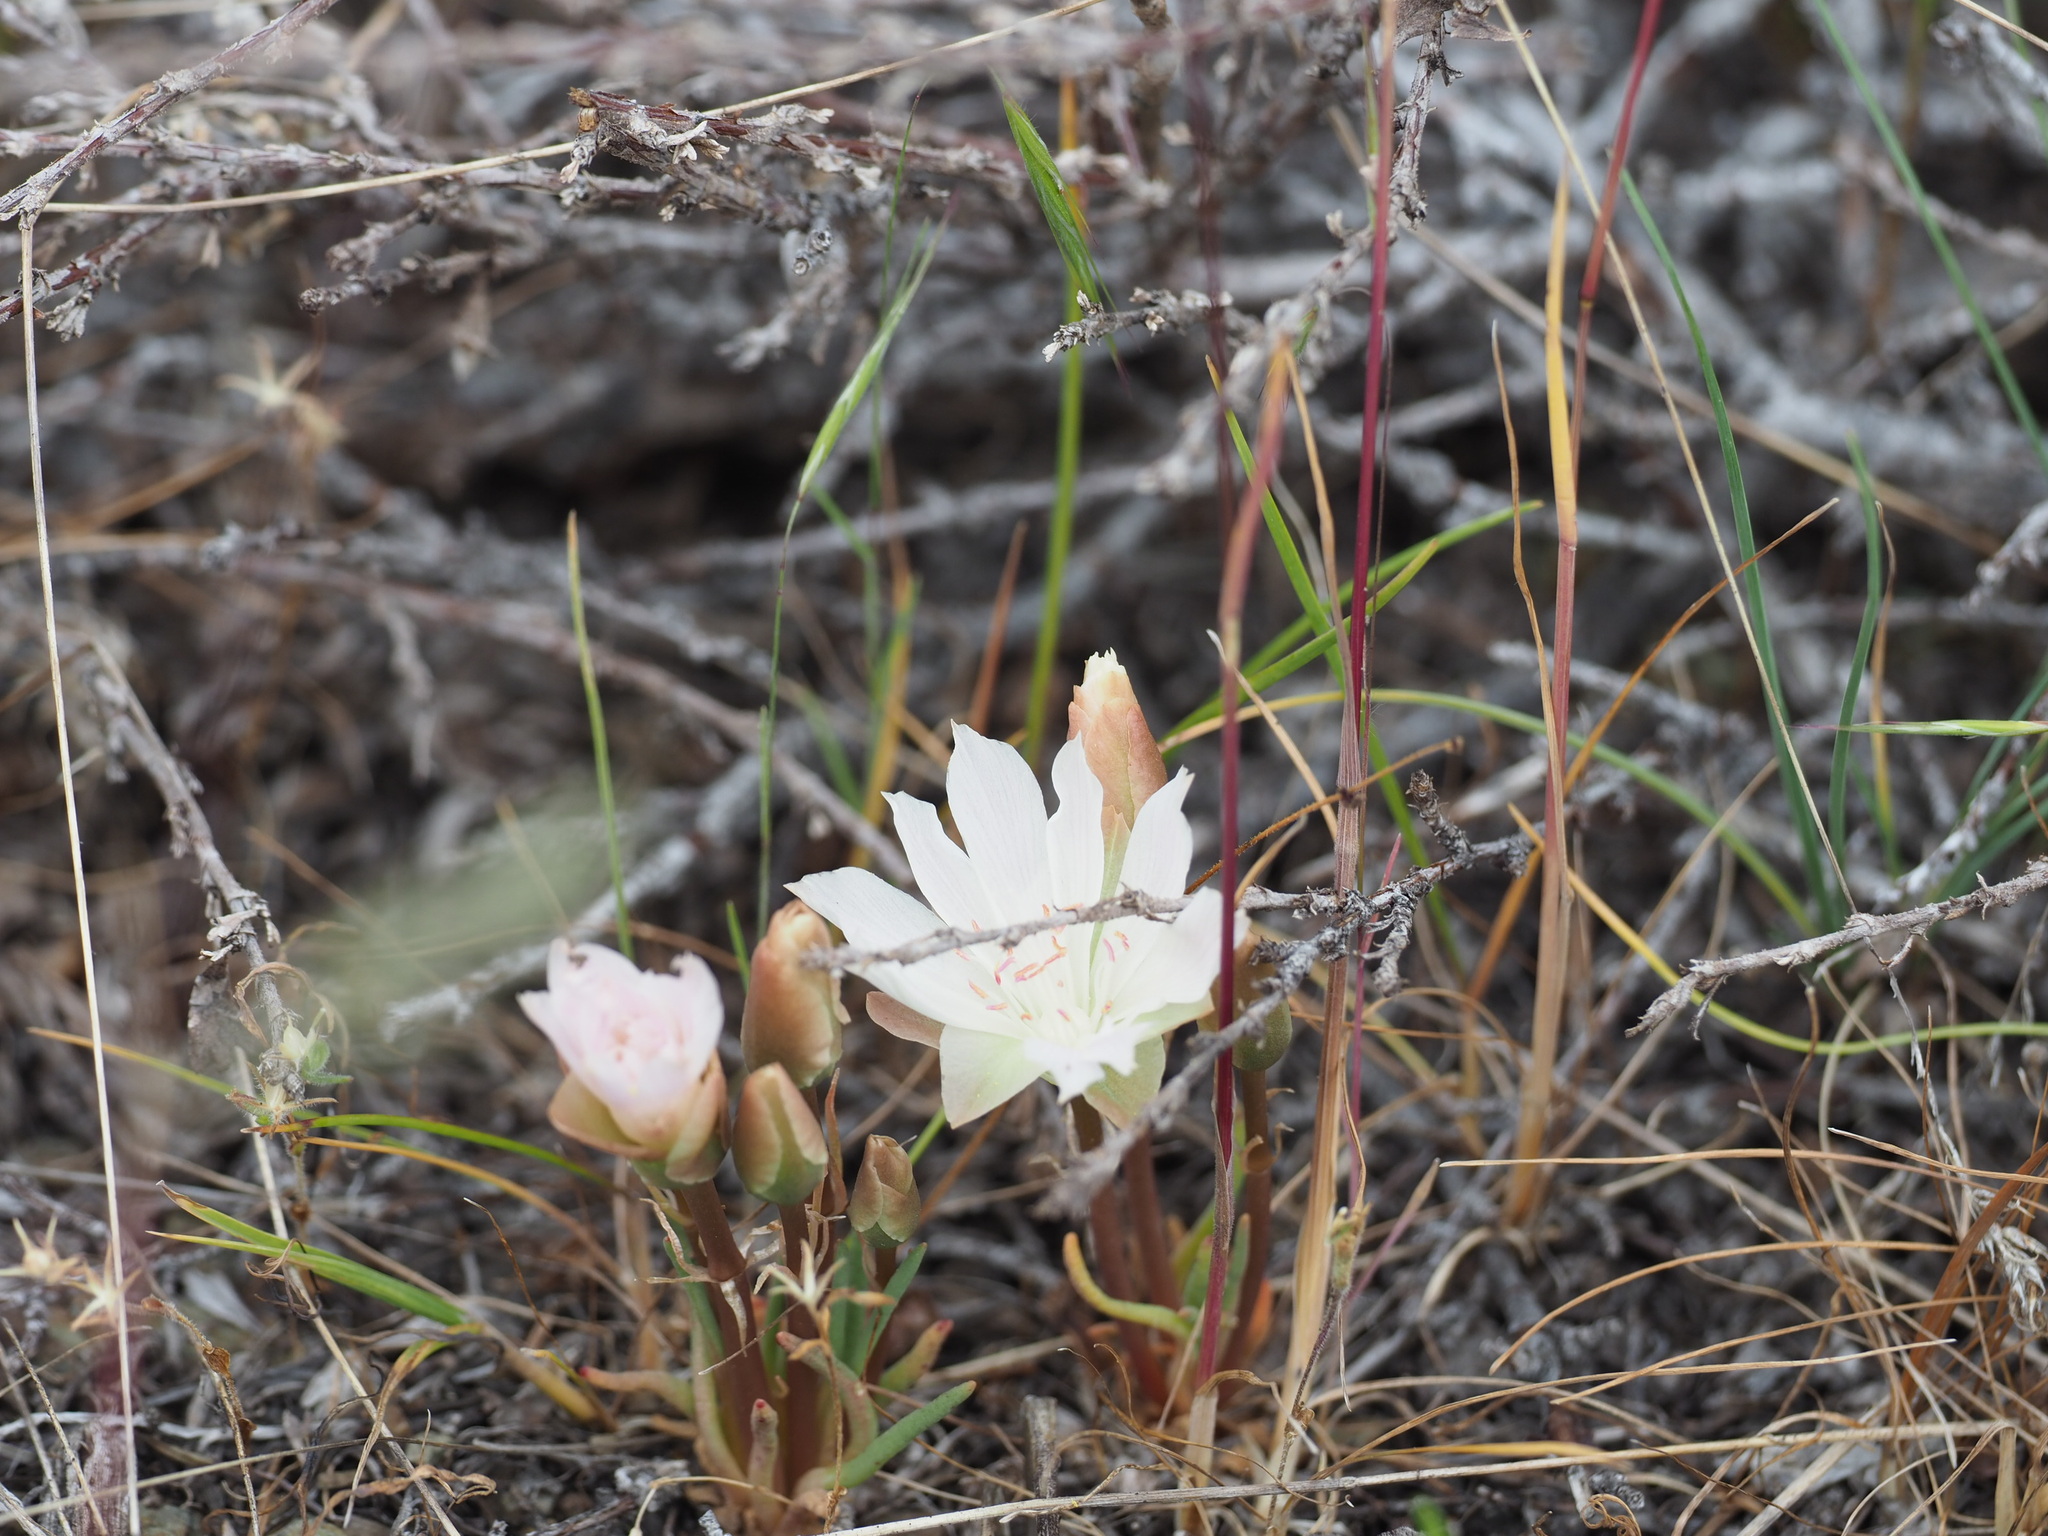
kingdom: Plantae
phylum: Tracheophyta
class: Magnoliopsida
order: Caryophyllales
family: Montiaceae
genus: Lewisia
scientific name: Lewisia rediviva
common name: Bitter-root
